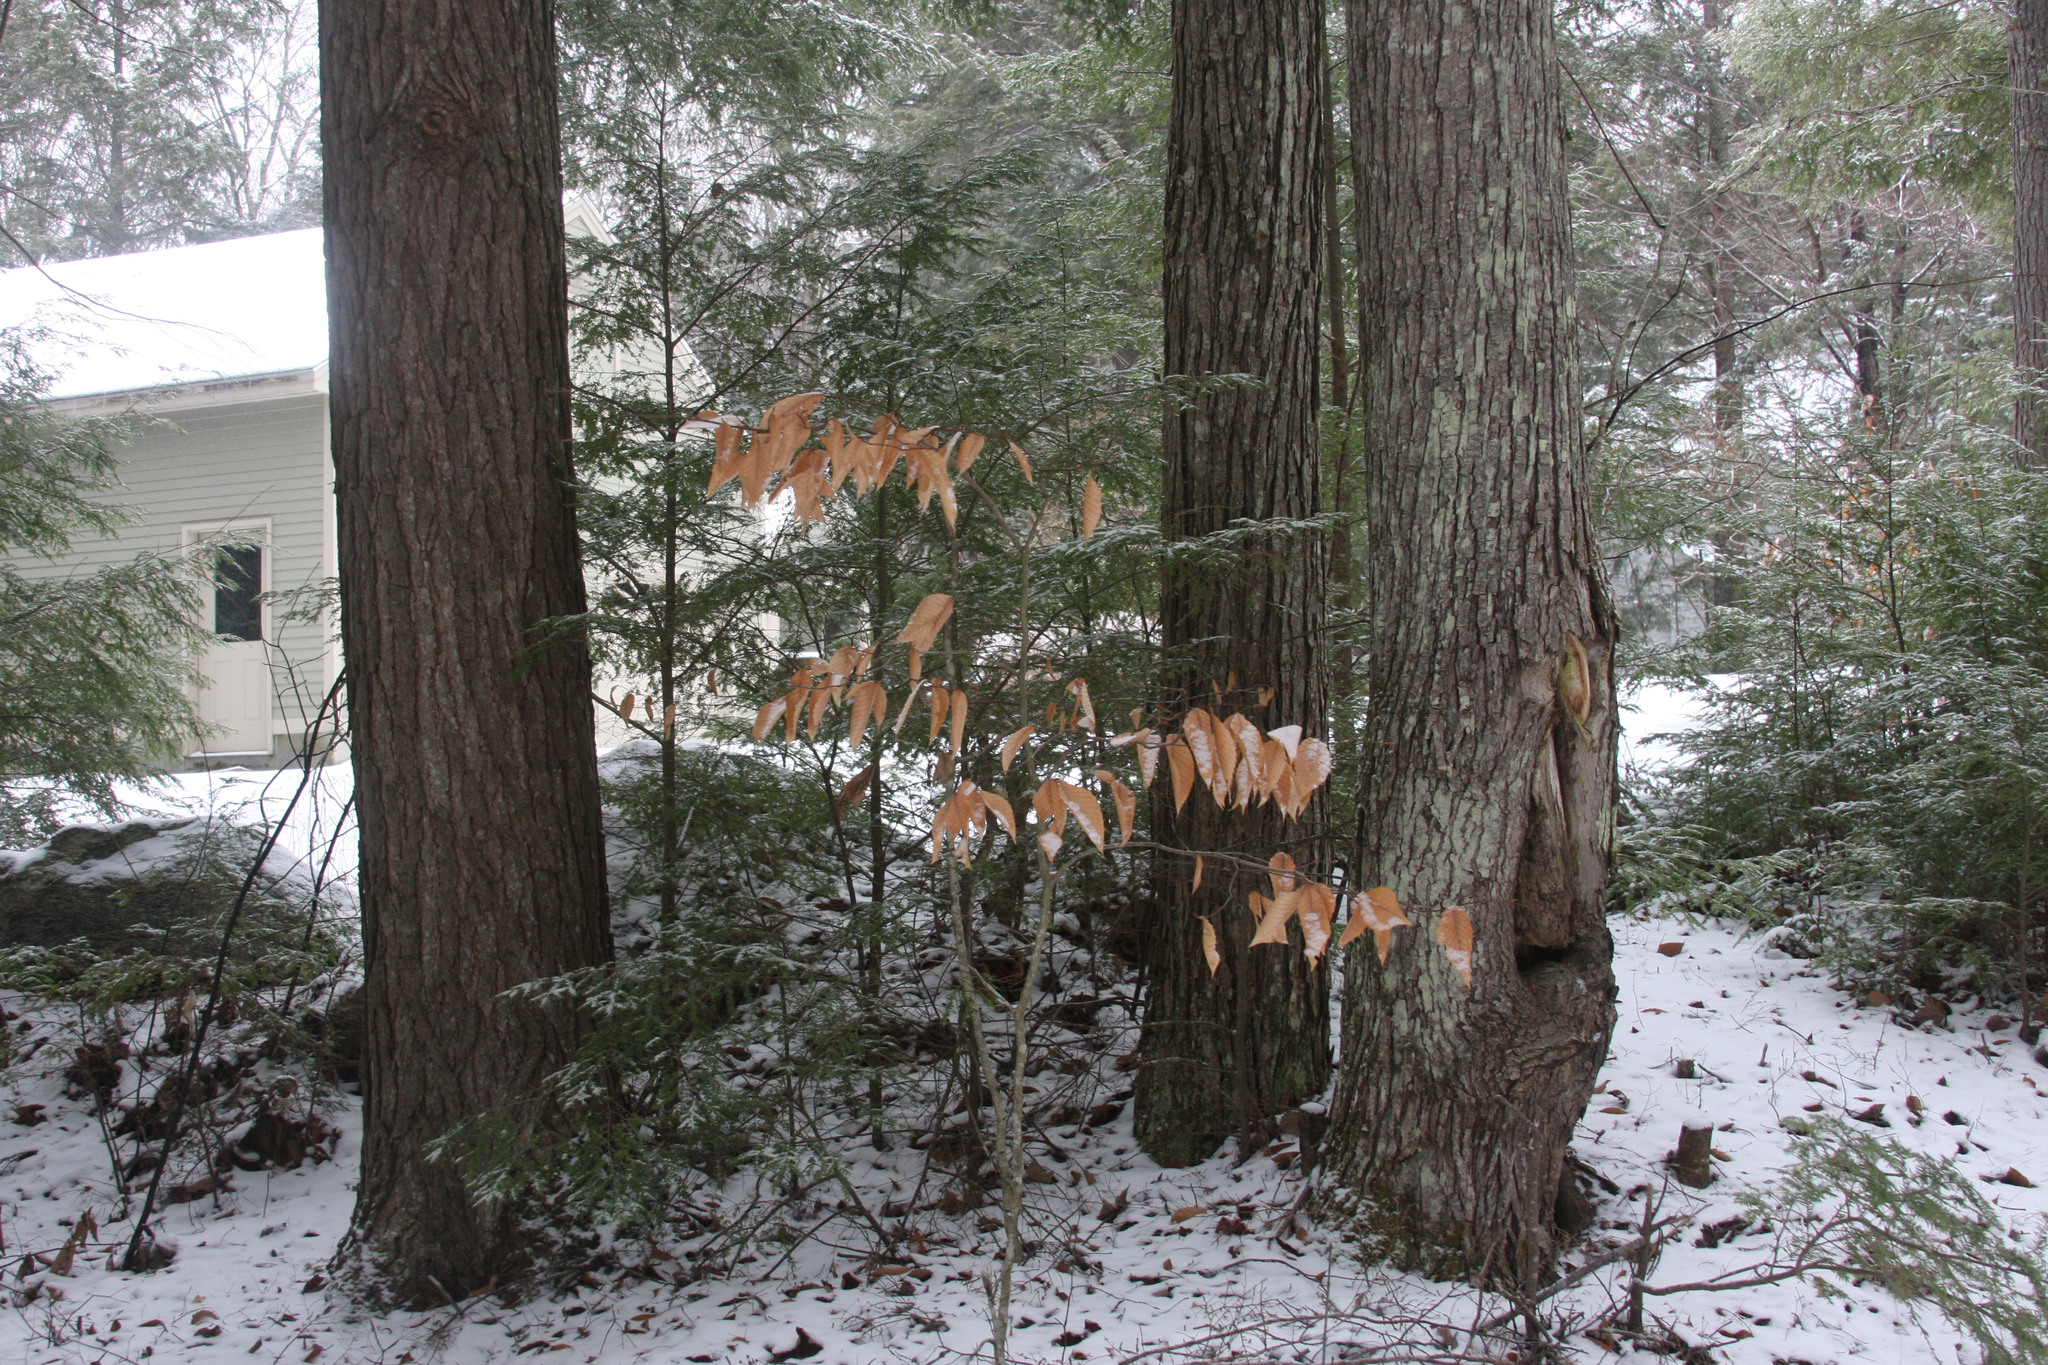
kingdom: Plantae
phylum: Tracheophyta
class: Magnoliopsida
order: Fagales
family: Fagaceae
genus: Fagus
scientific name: Fagus grandifolia
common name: American beech
